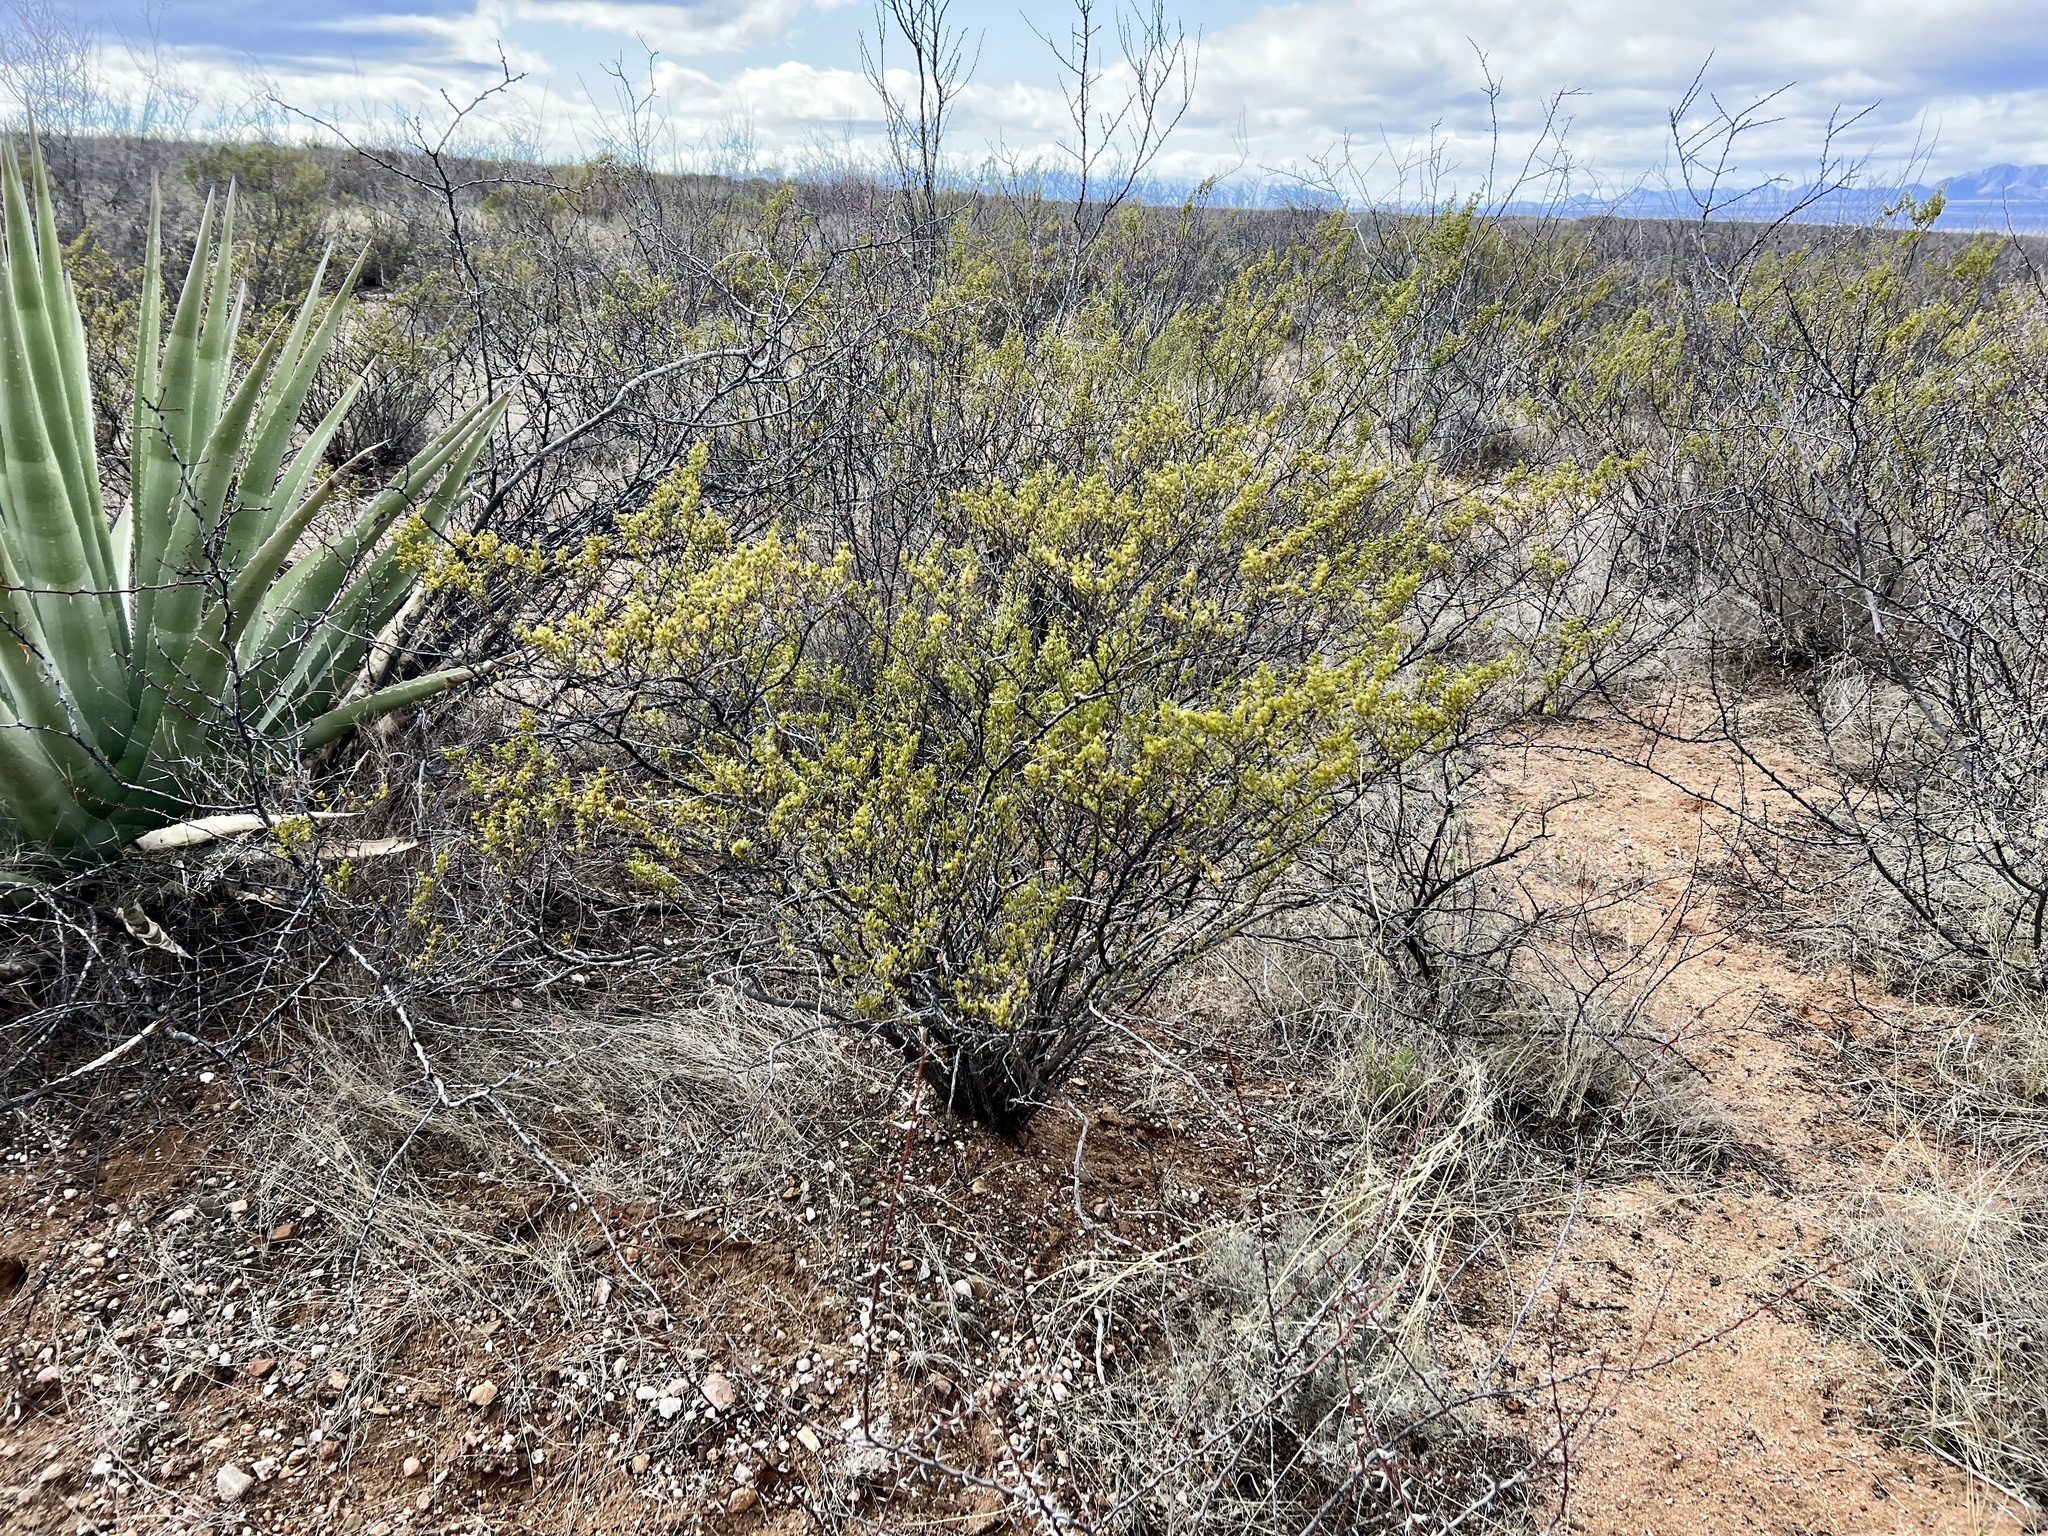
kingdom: Plantae
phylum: Tracheophyta
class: Magnoliopsida
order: Zygophyllales
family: Zygophyllaceae
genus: Larrea
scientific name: Larrea tridentata
